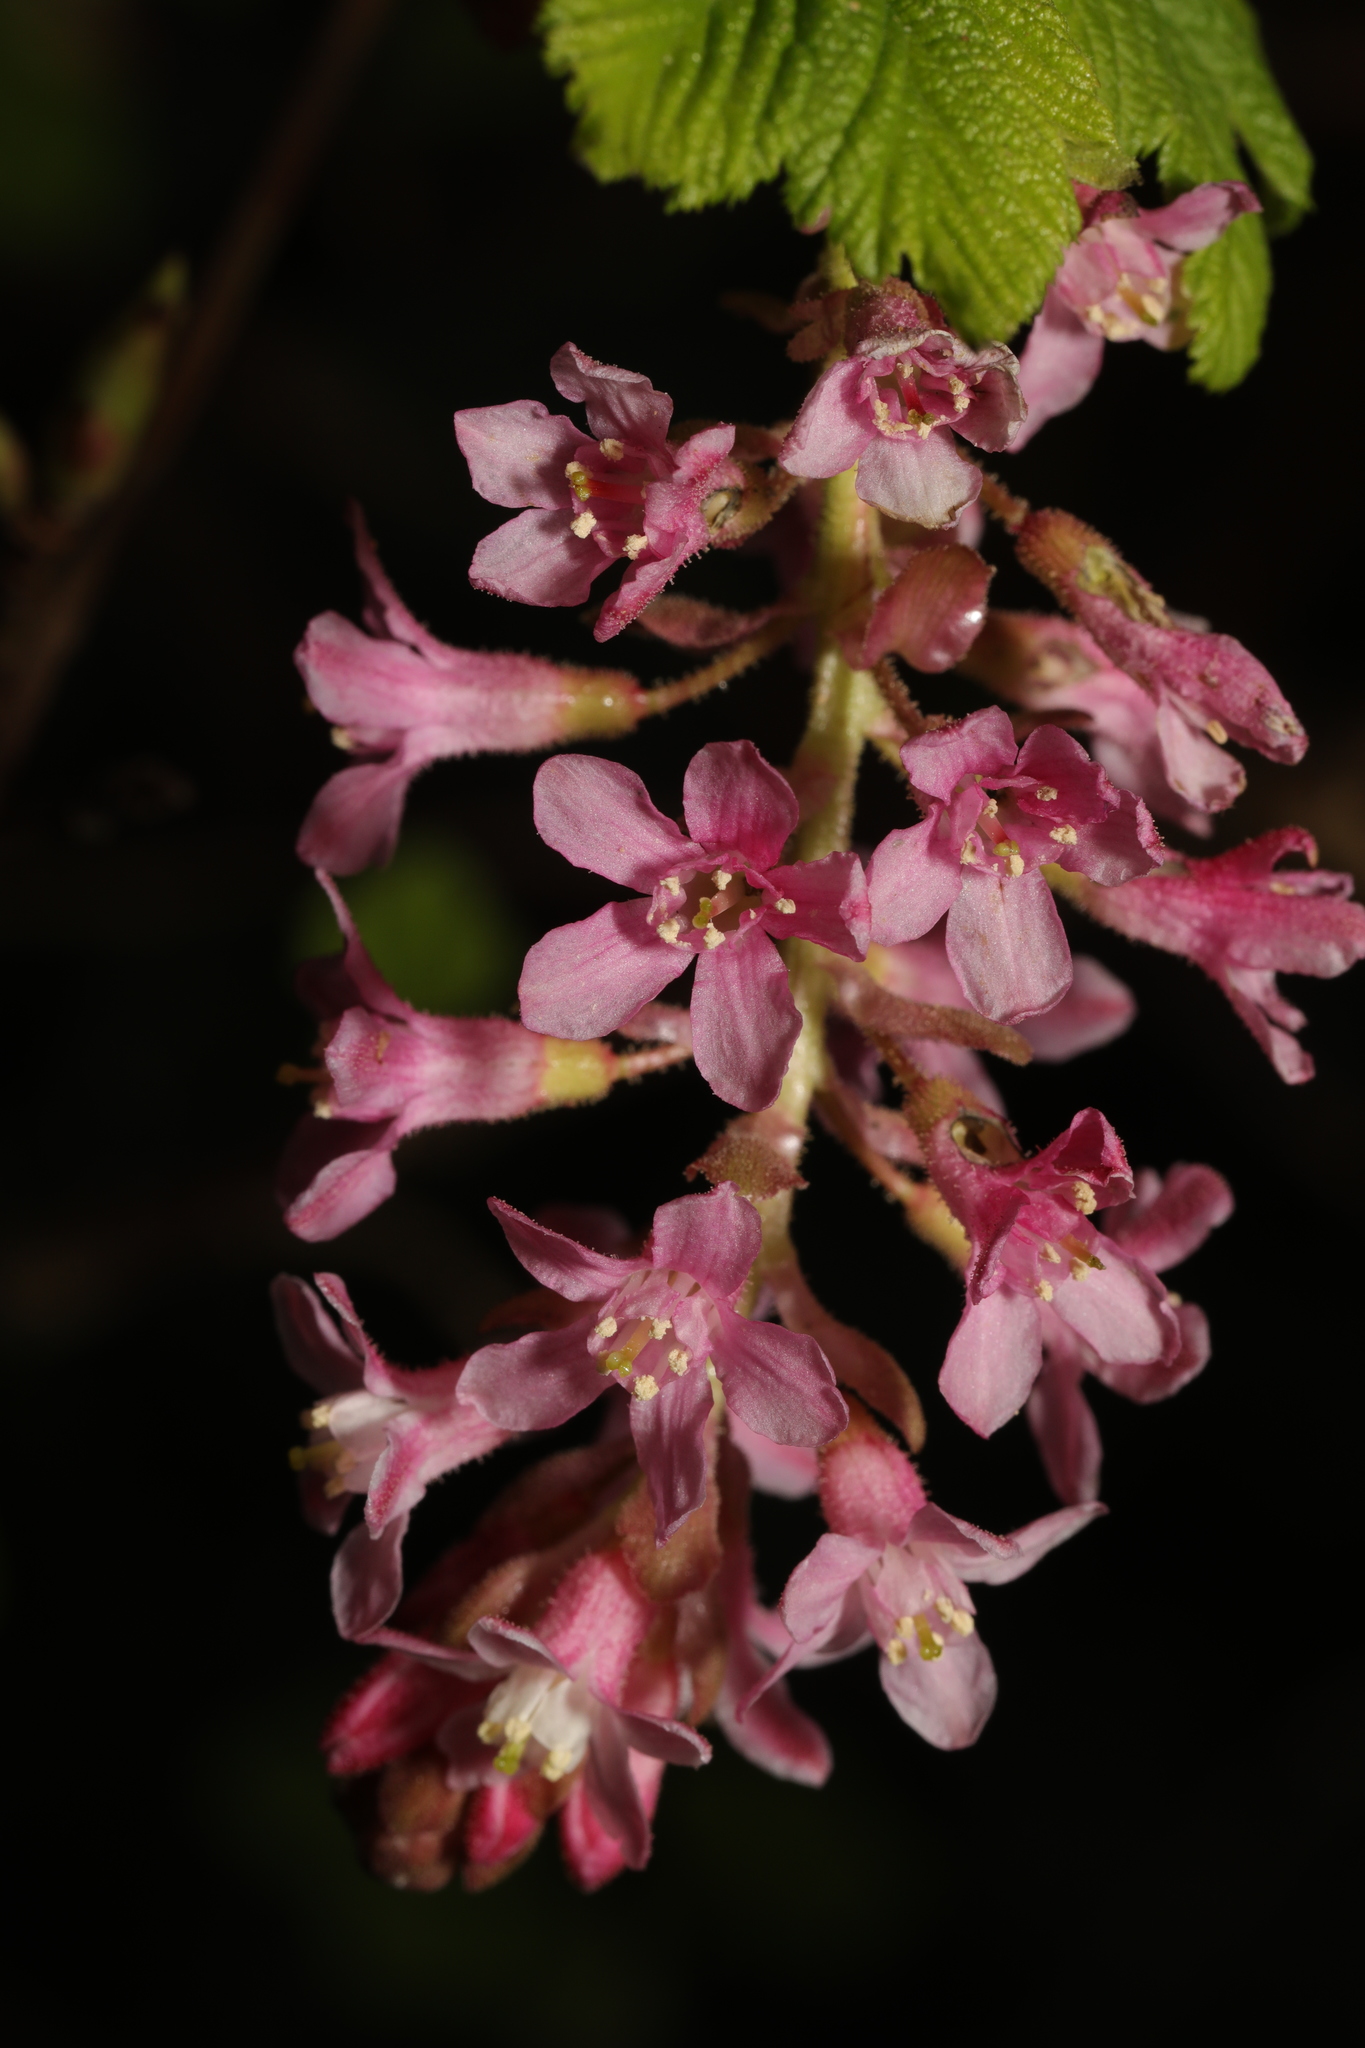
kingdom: Plantae
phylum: Tracheophyta
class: Magnoliopsida
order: Saxifragales
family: Grossulariaceae
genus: Ribes
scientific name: Ribes sanguineum
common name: Flowering currant
